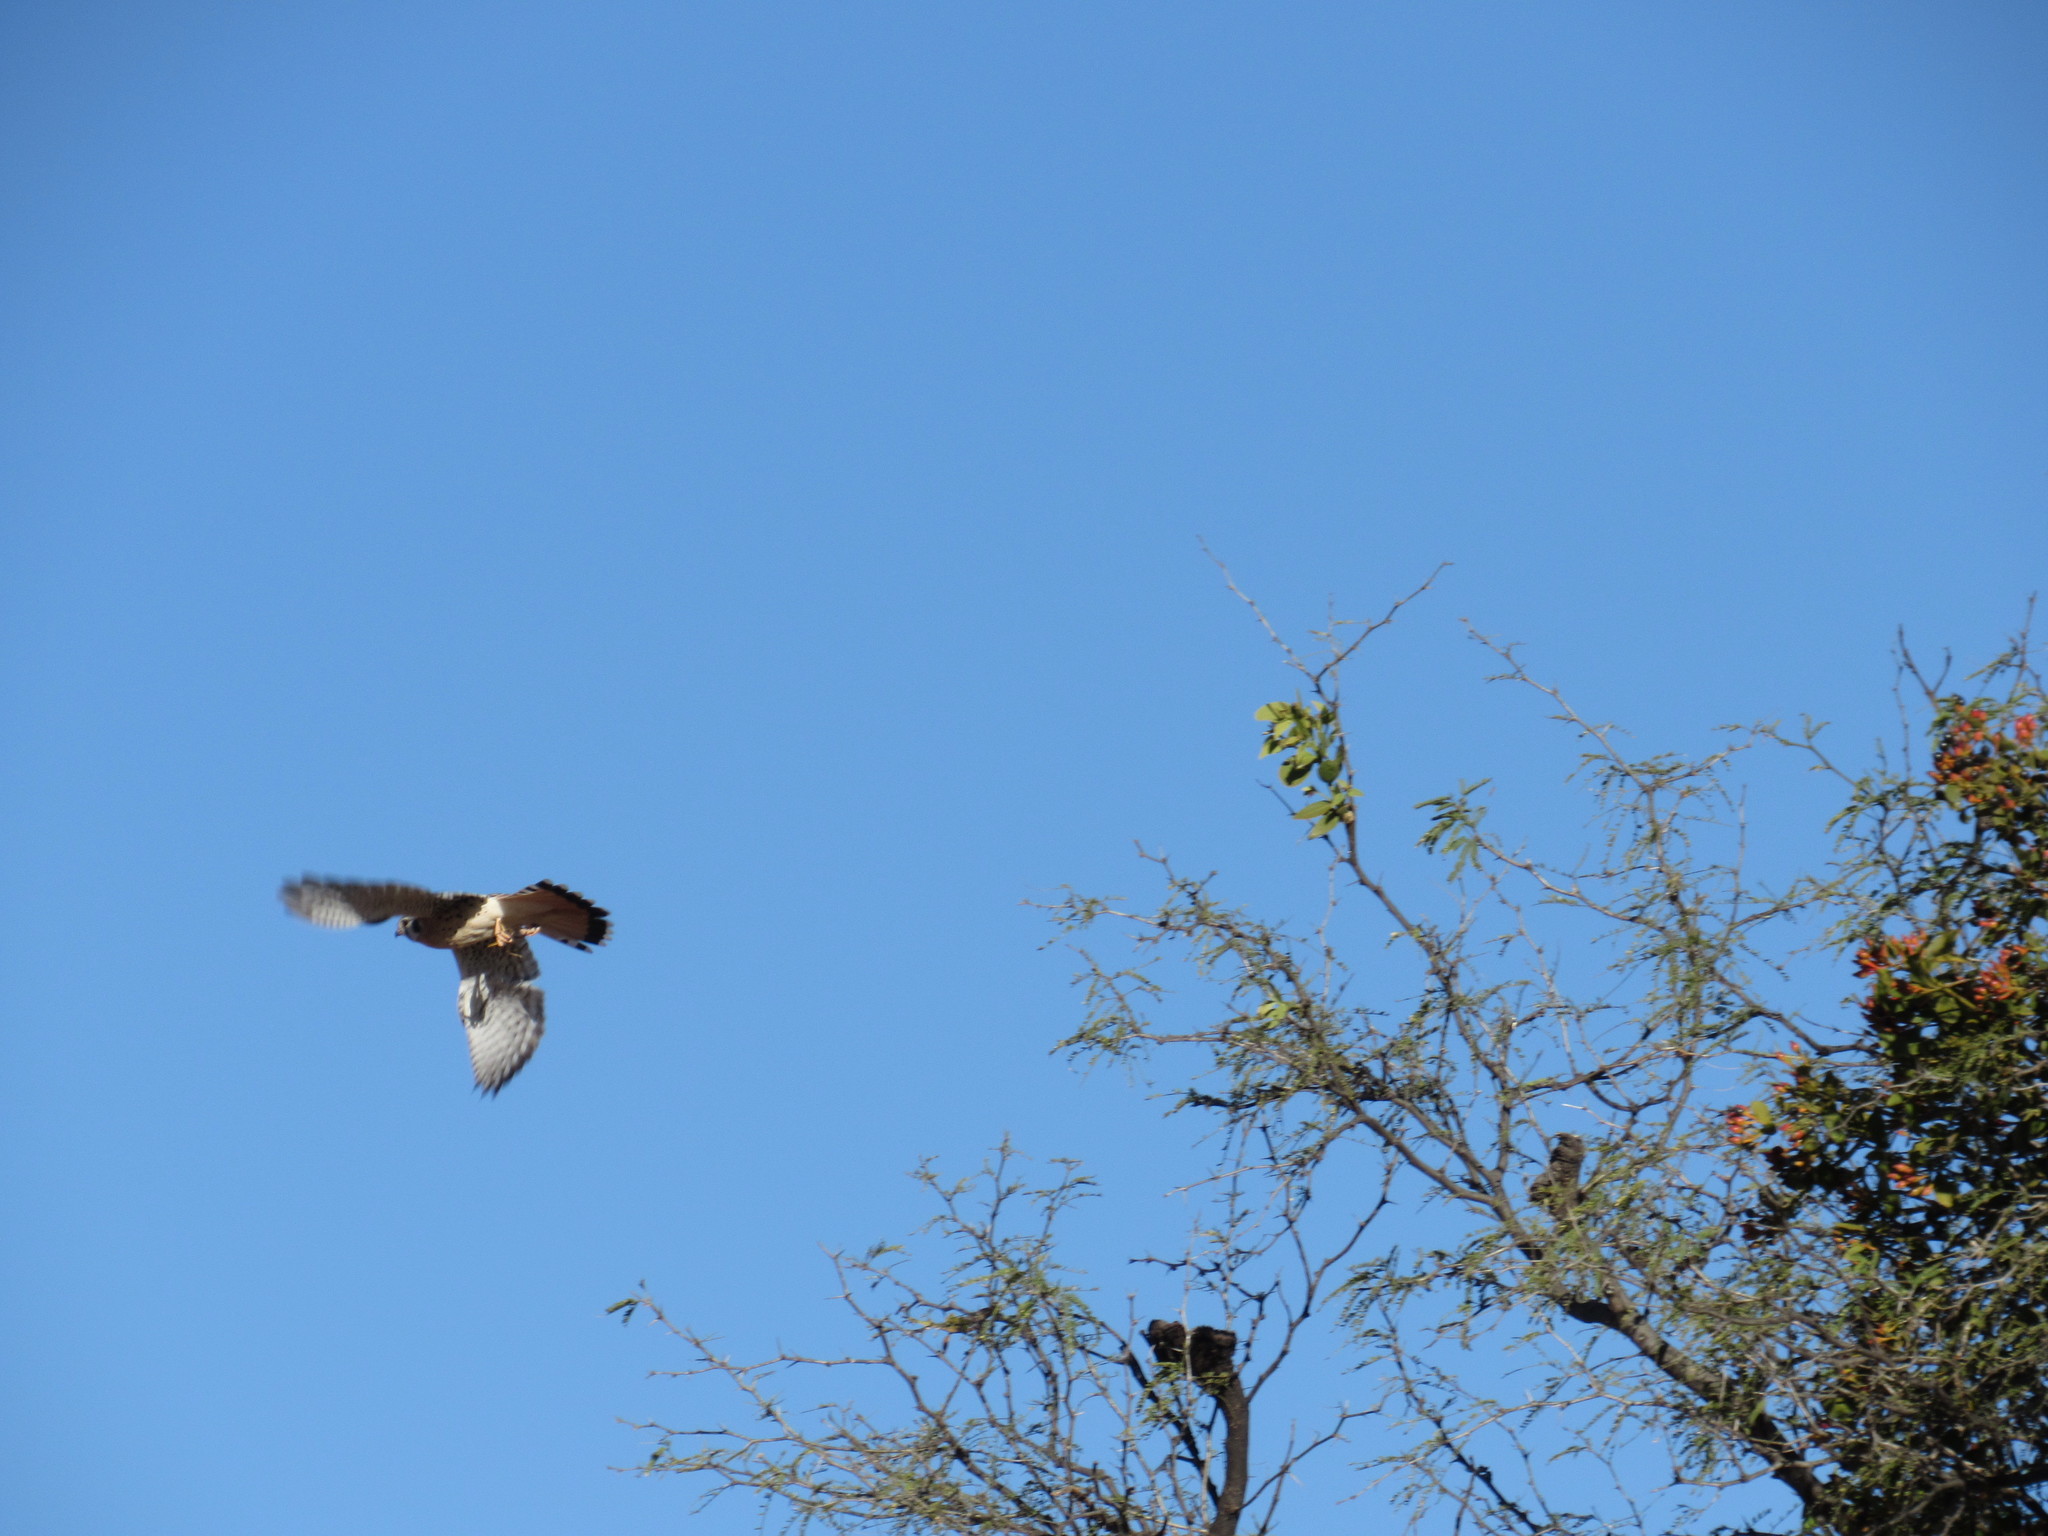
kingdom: Animalia
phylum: Chordata
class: Aves
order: Falconiformes
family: Falconidae
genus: Falco
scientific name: Falco sparverius
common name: American kestrel
